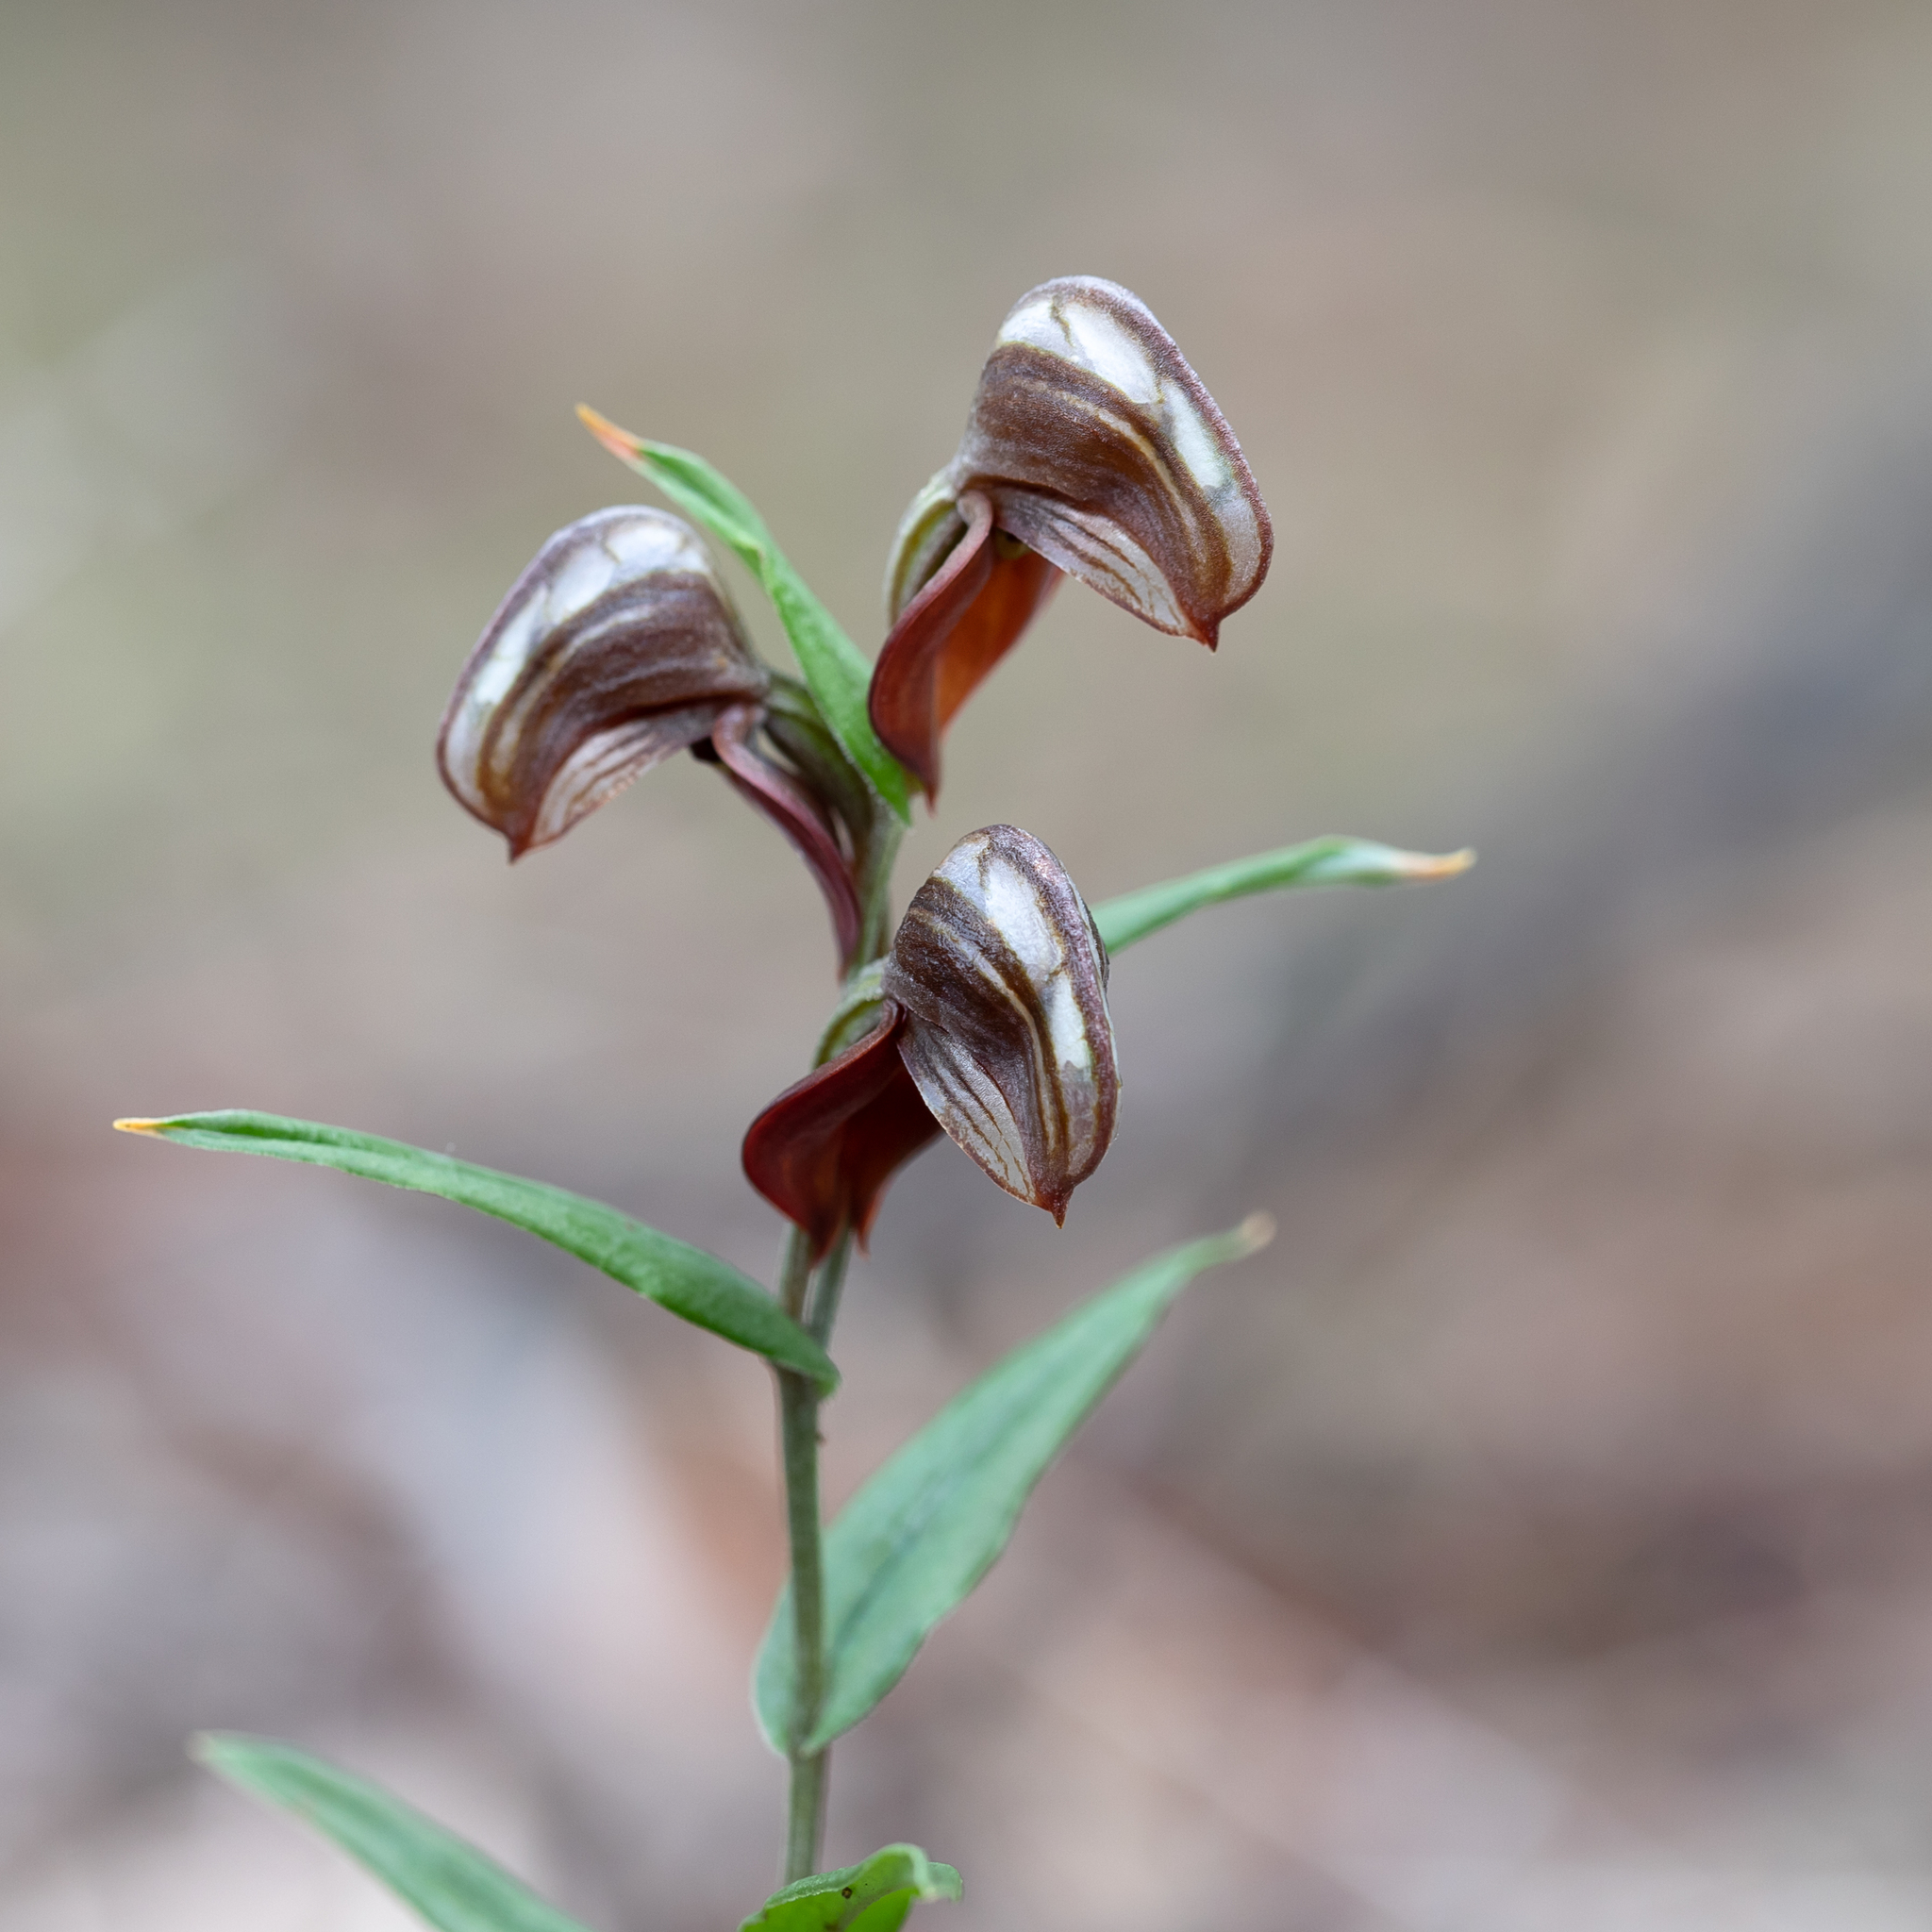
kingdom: Plantae
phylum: Tracheophyta
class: Liliopsida
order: Asparagales
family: Orchidaceae
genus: Pterostylis
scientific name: Pterostylis sanguinea
